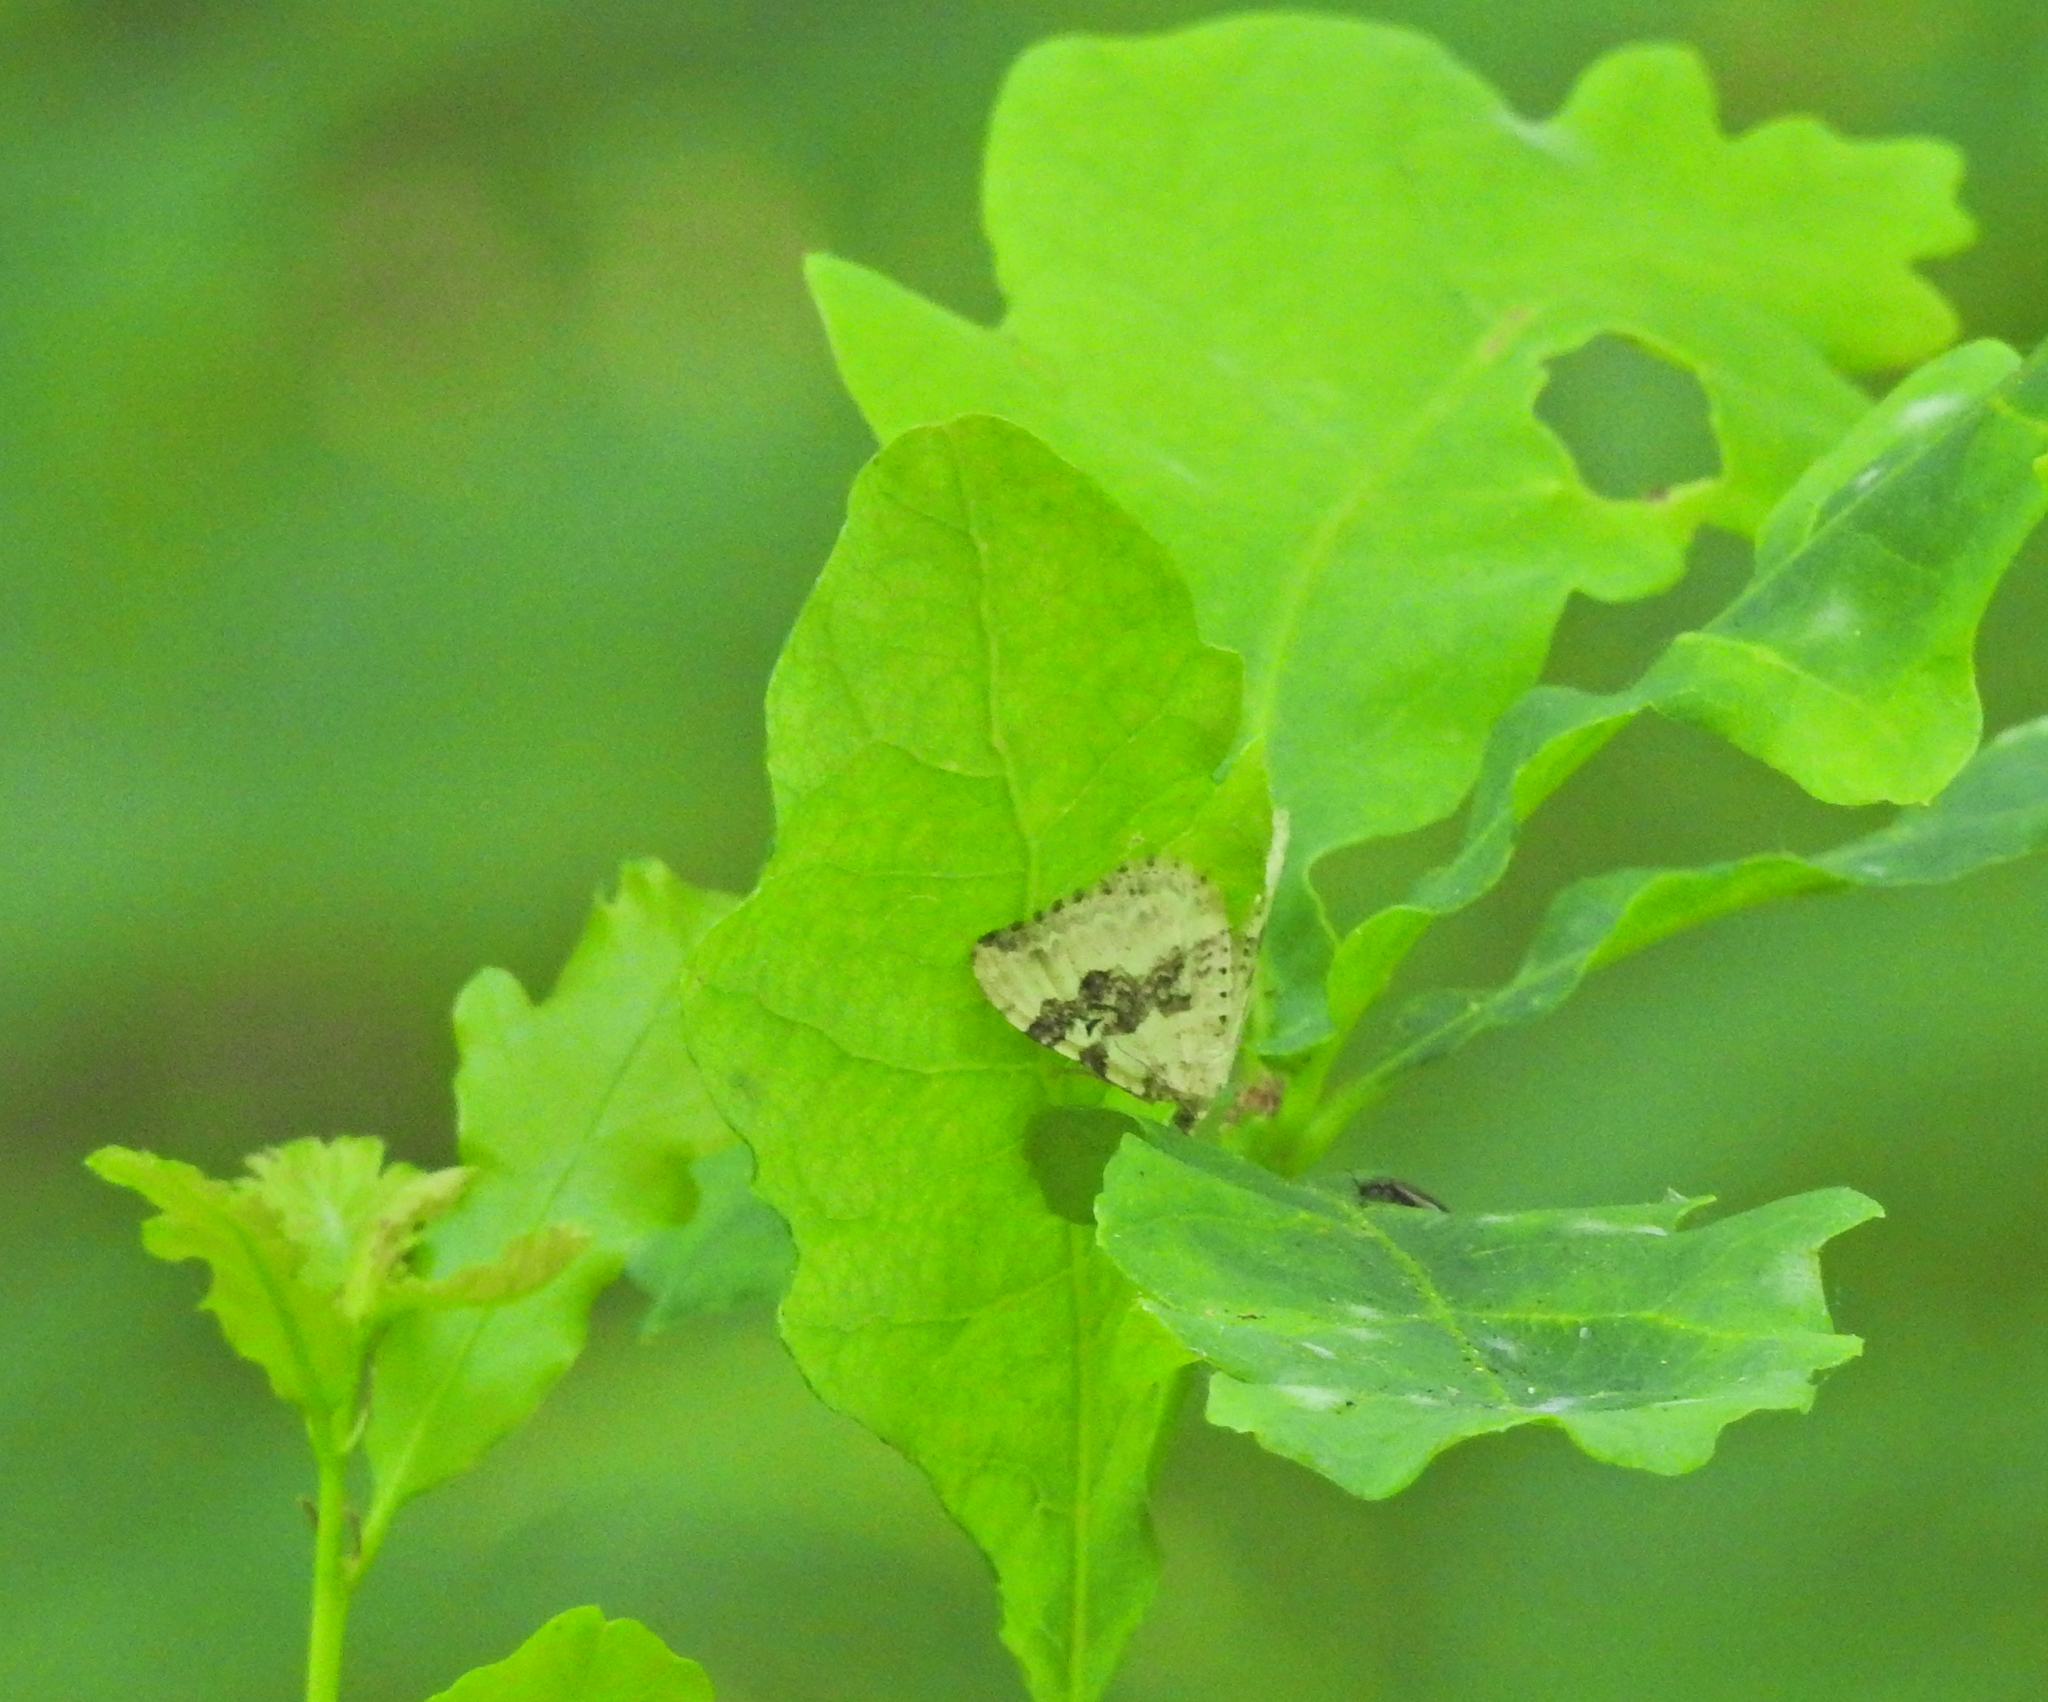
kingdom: Animalia
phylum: Arthropoda
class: Insecta
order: Lepidoptera
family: Geometridae
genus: Xanthorhoe
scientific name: Xanthorhoe montanata
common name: Silver-ground carpet
